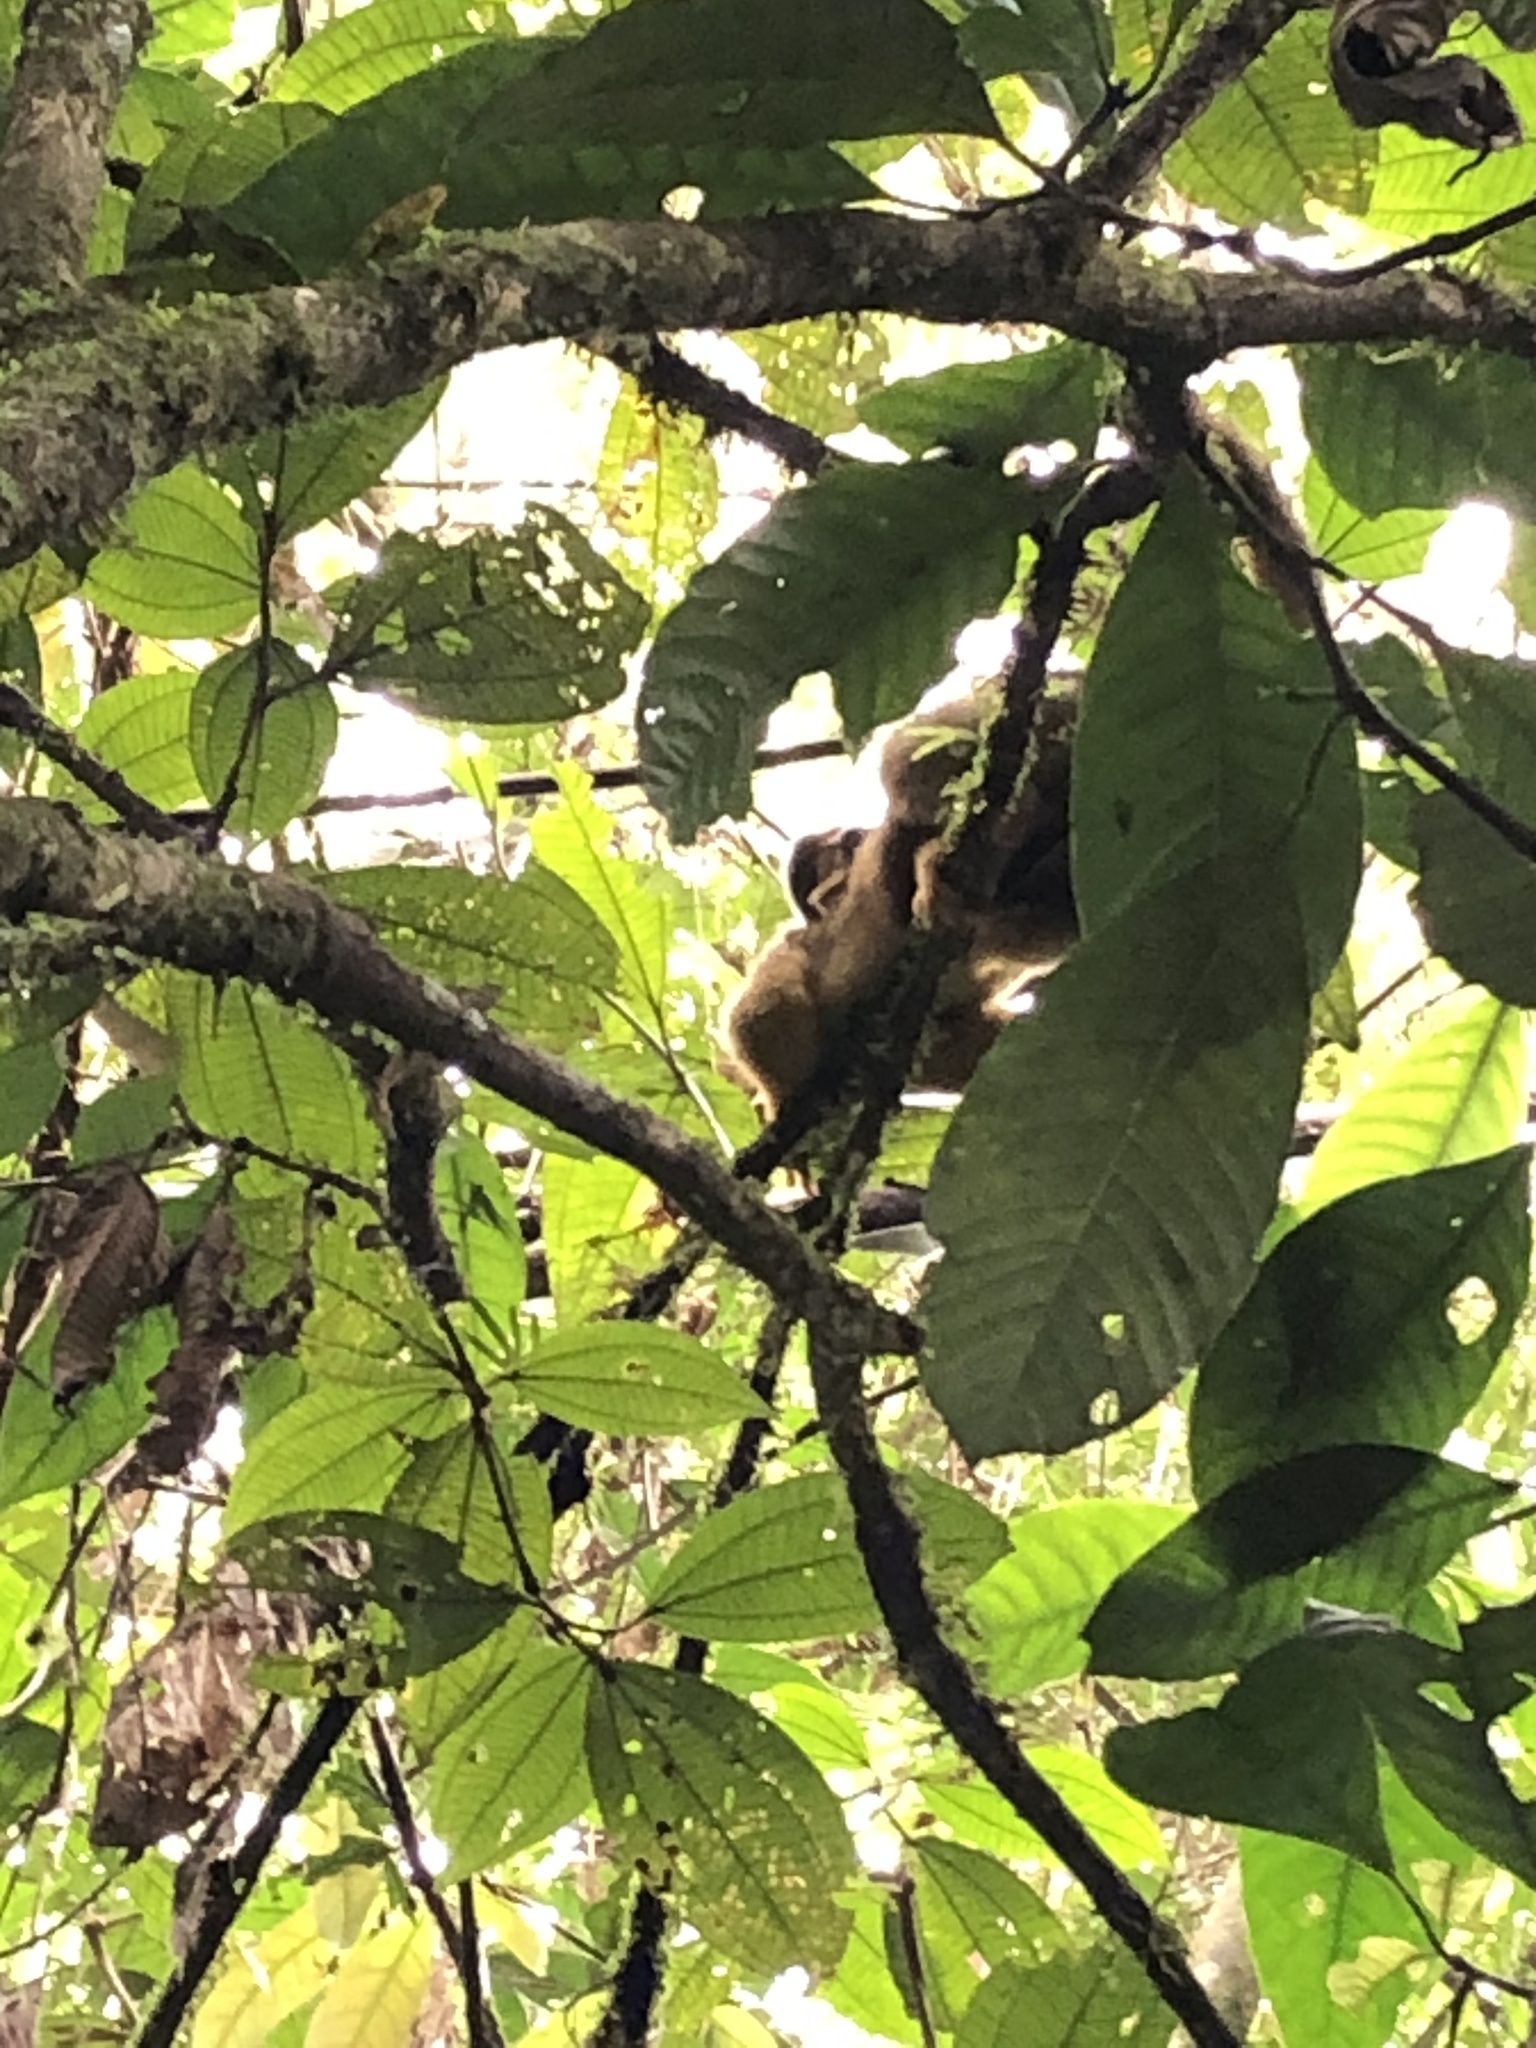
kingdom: Animalia
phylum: Chordata
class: Mammalia
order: Primates
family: Cebidae
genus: Saimiri
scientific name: Saimiri boliviensis
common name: Black-capped squirrel monkey
